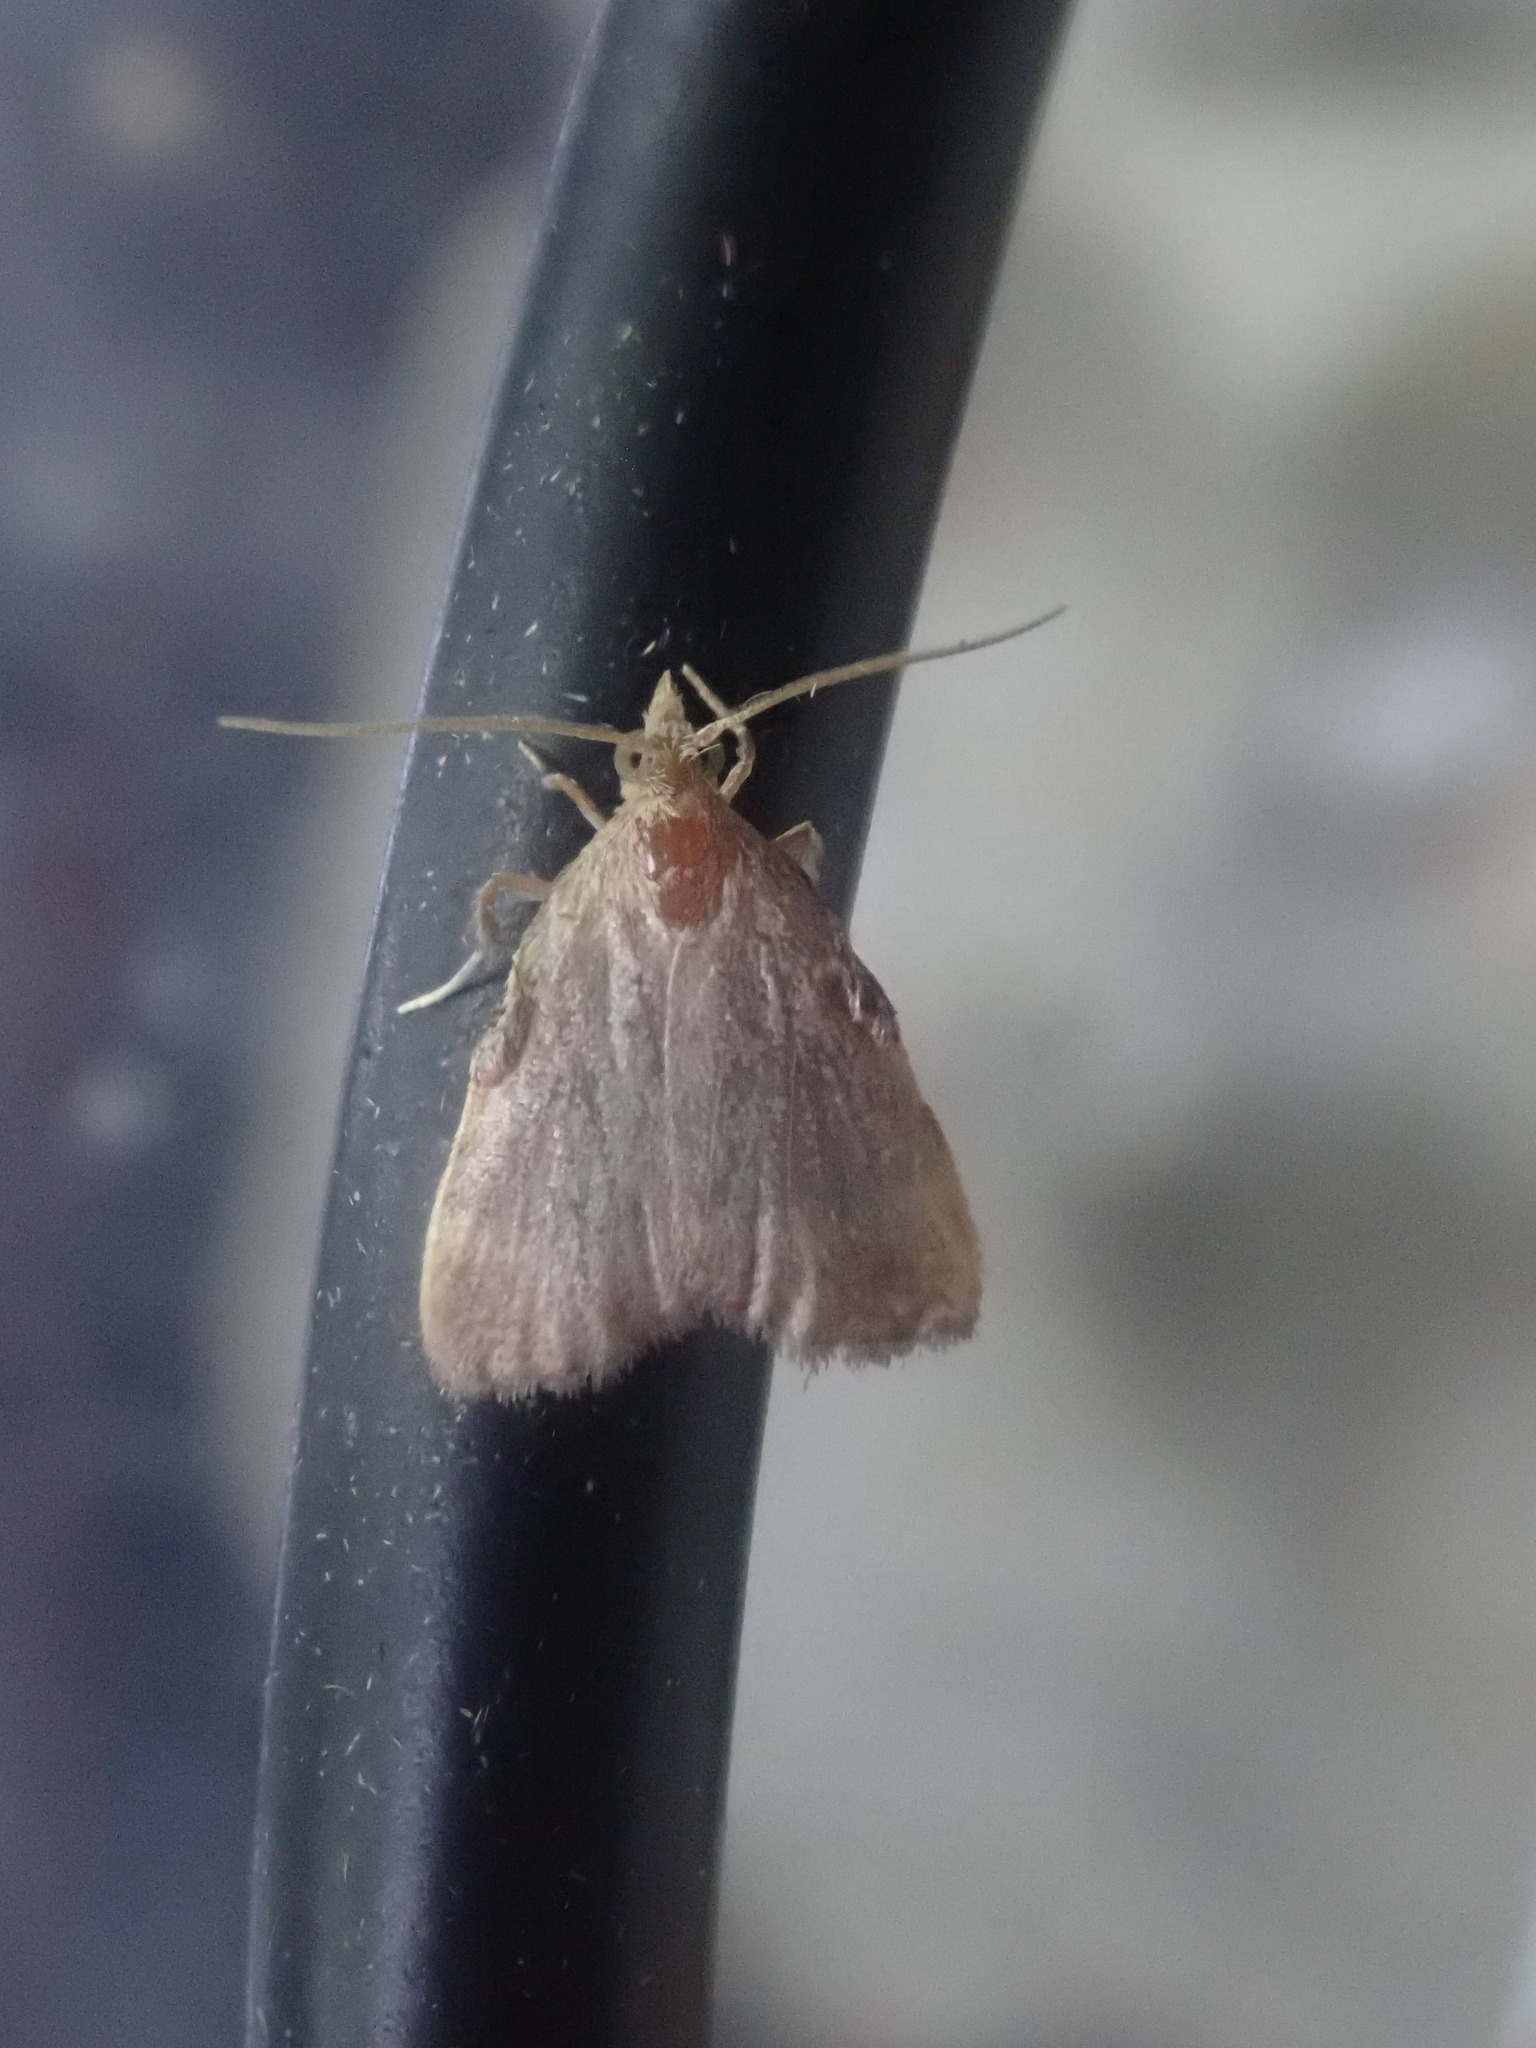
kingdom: Animalia
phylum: Arthropoda
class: Insecta
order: Lepidoptera
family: Pyralidae
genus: Condylolomia
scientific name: Condylolomia participialis
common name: Drab condylolomia moth
